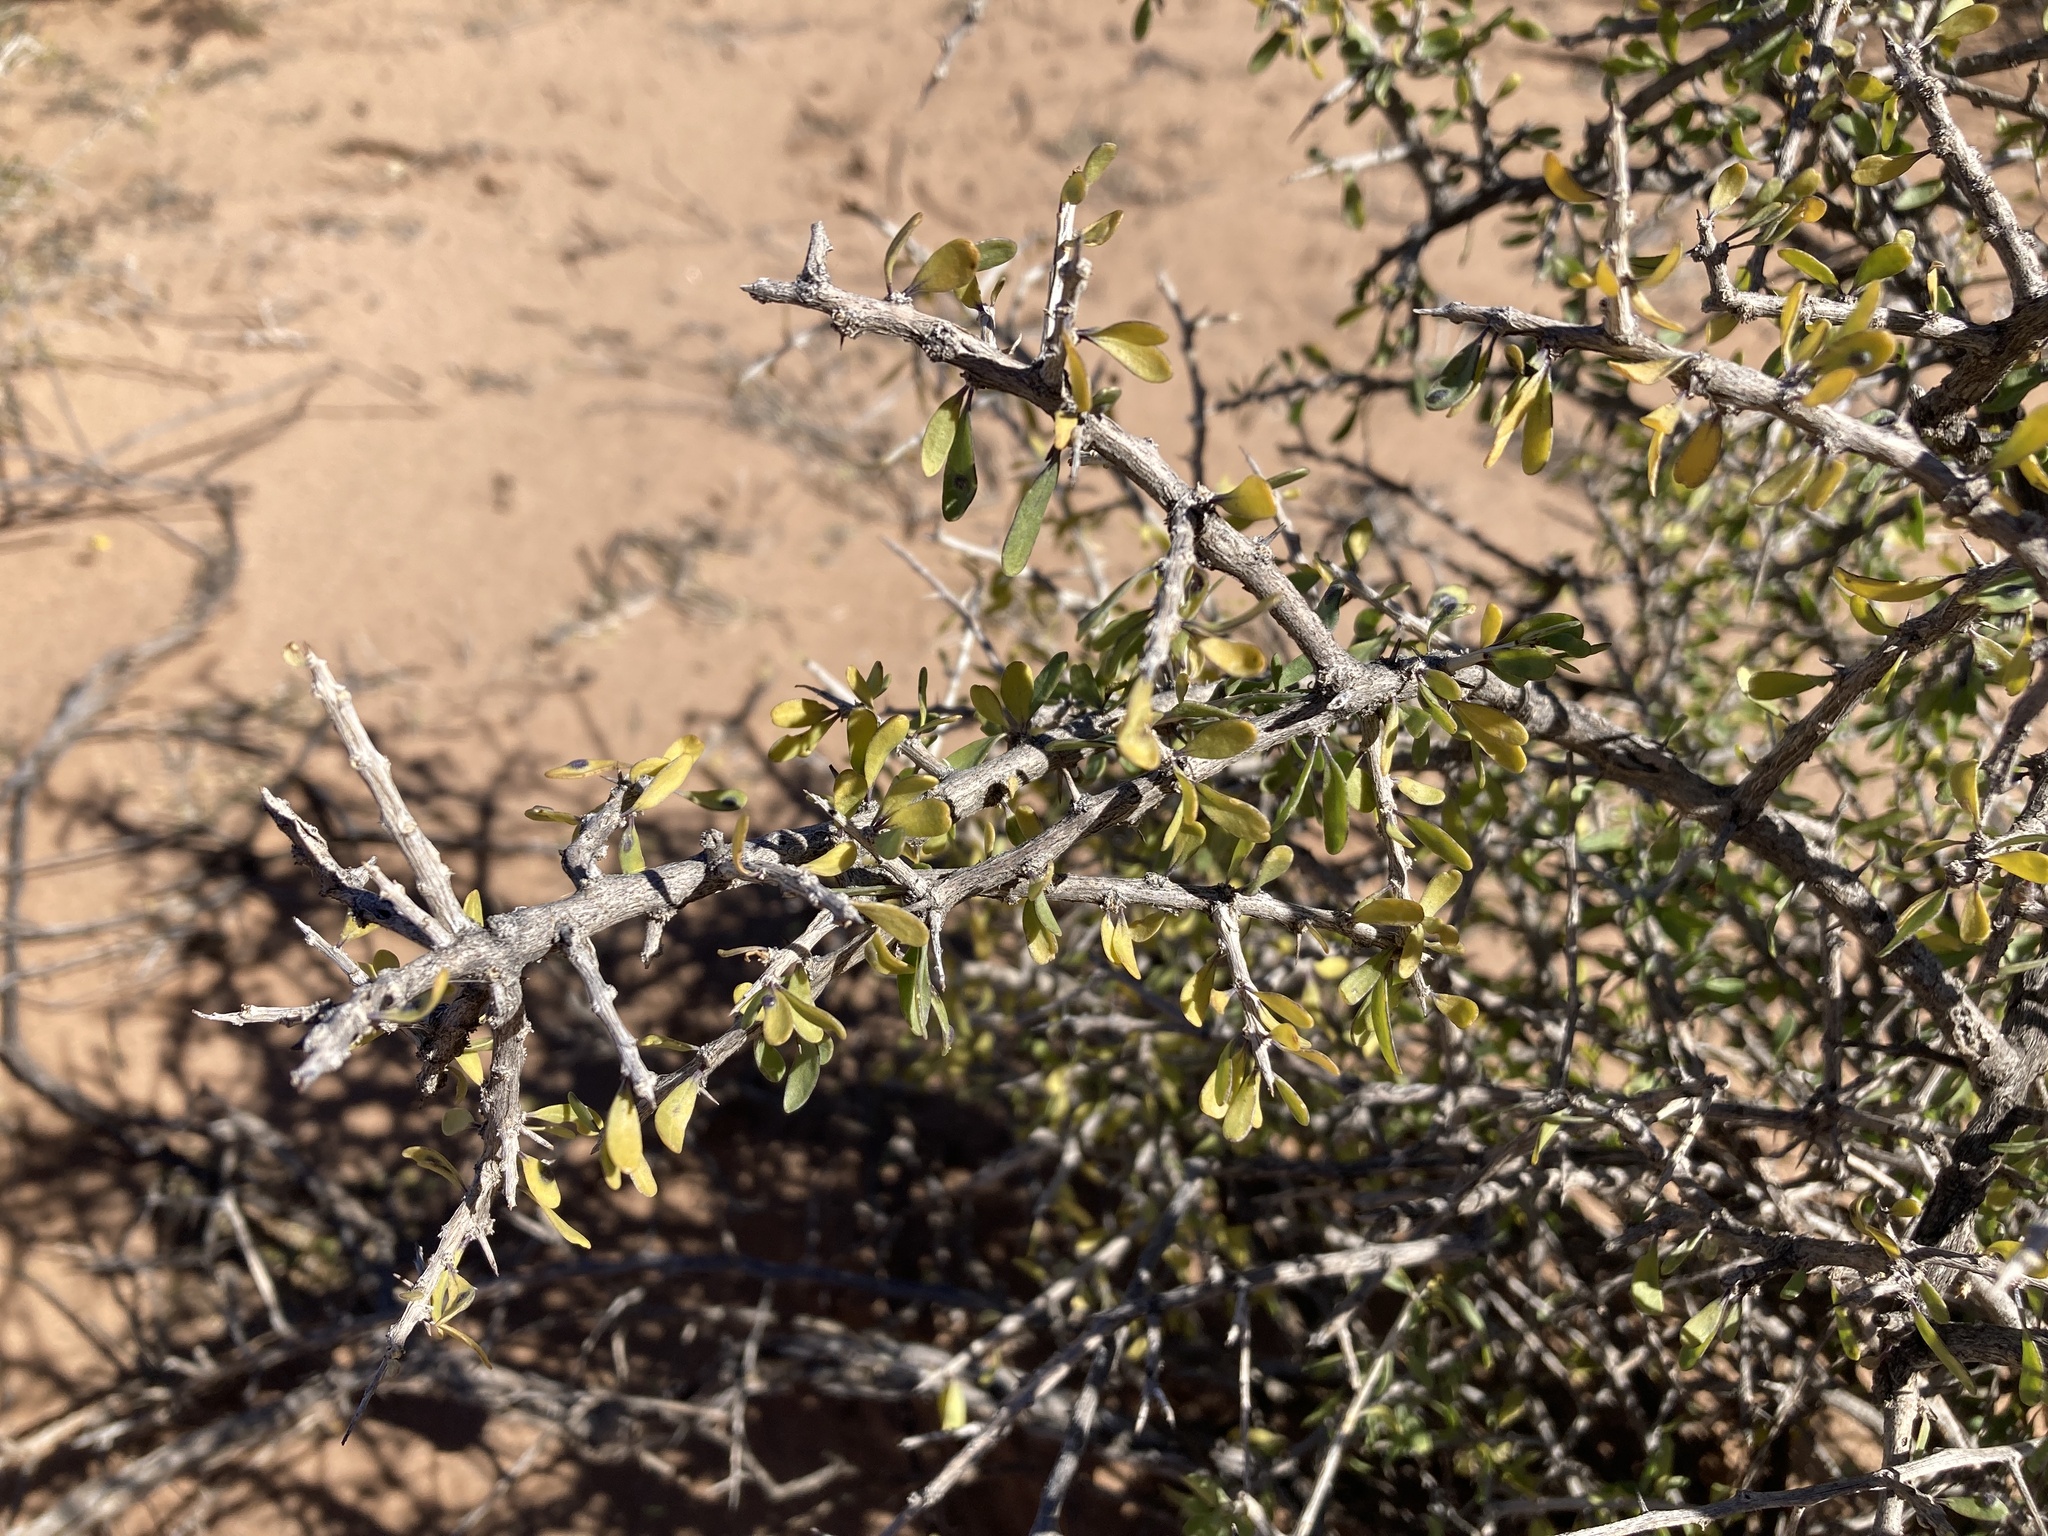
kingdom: Plantae
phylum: Tracheophyta
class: Magnoliopsida
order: Solanales
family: Solanaceae
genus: Lycium
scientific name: Lycium berlandieri
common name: Berlandier wolfberry
